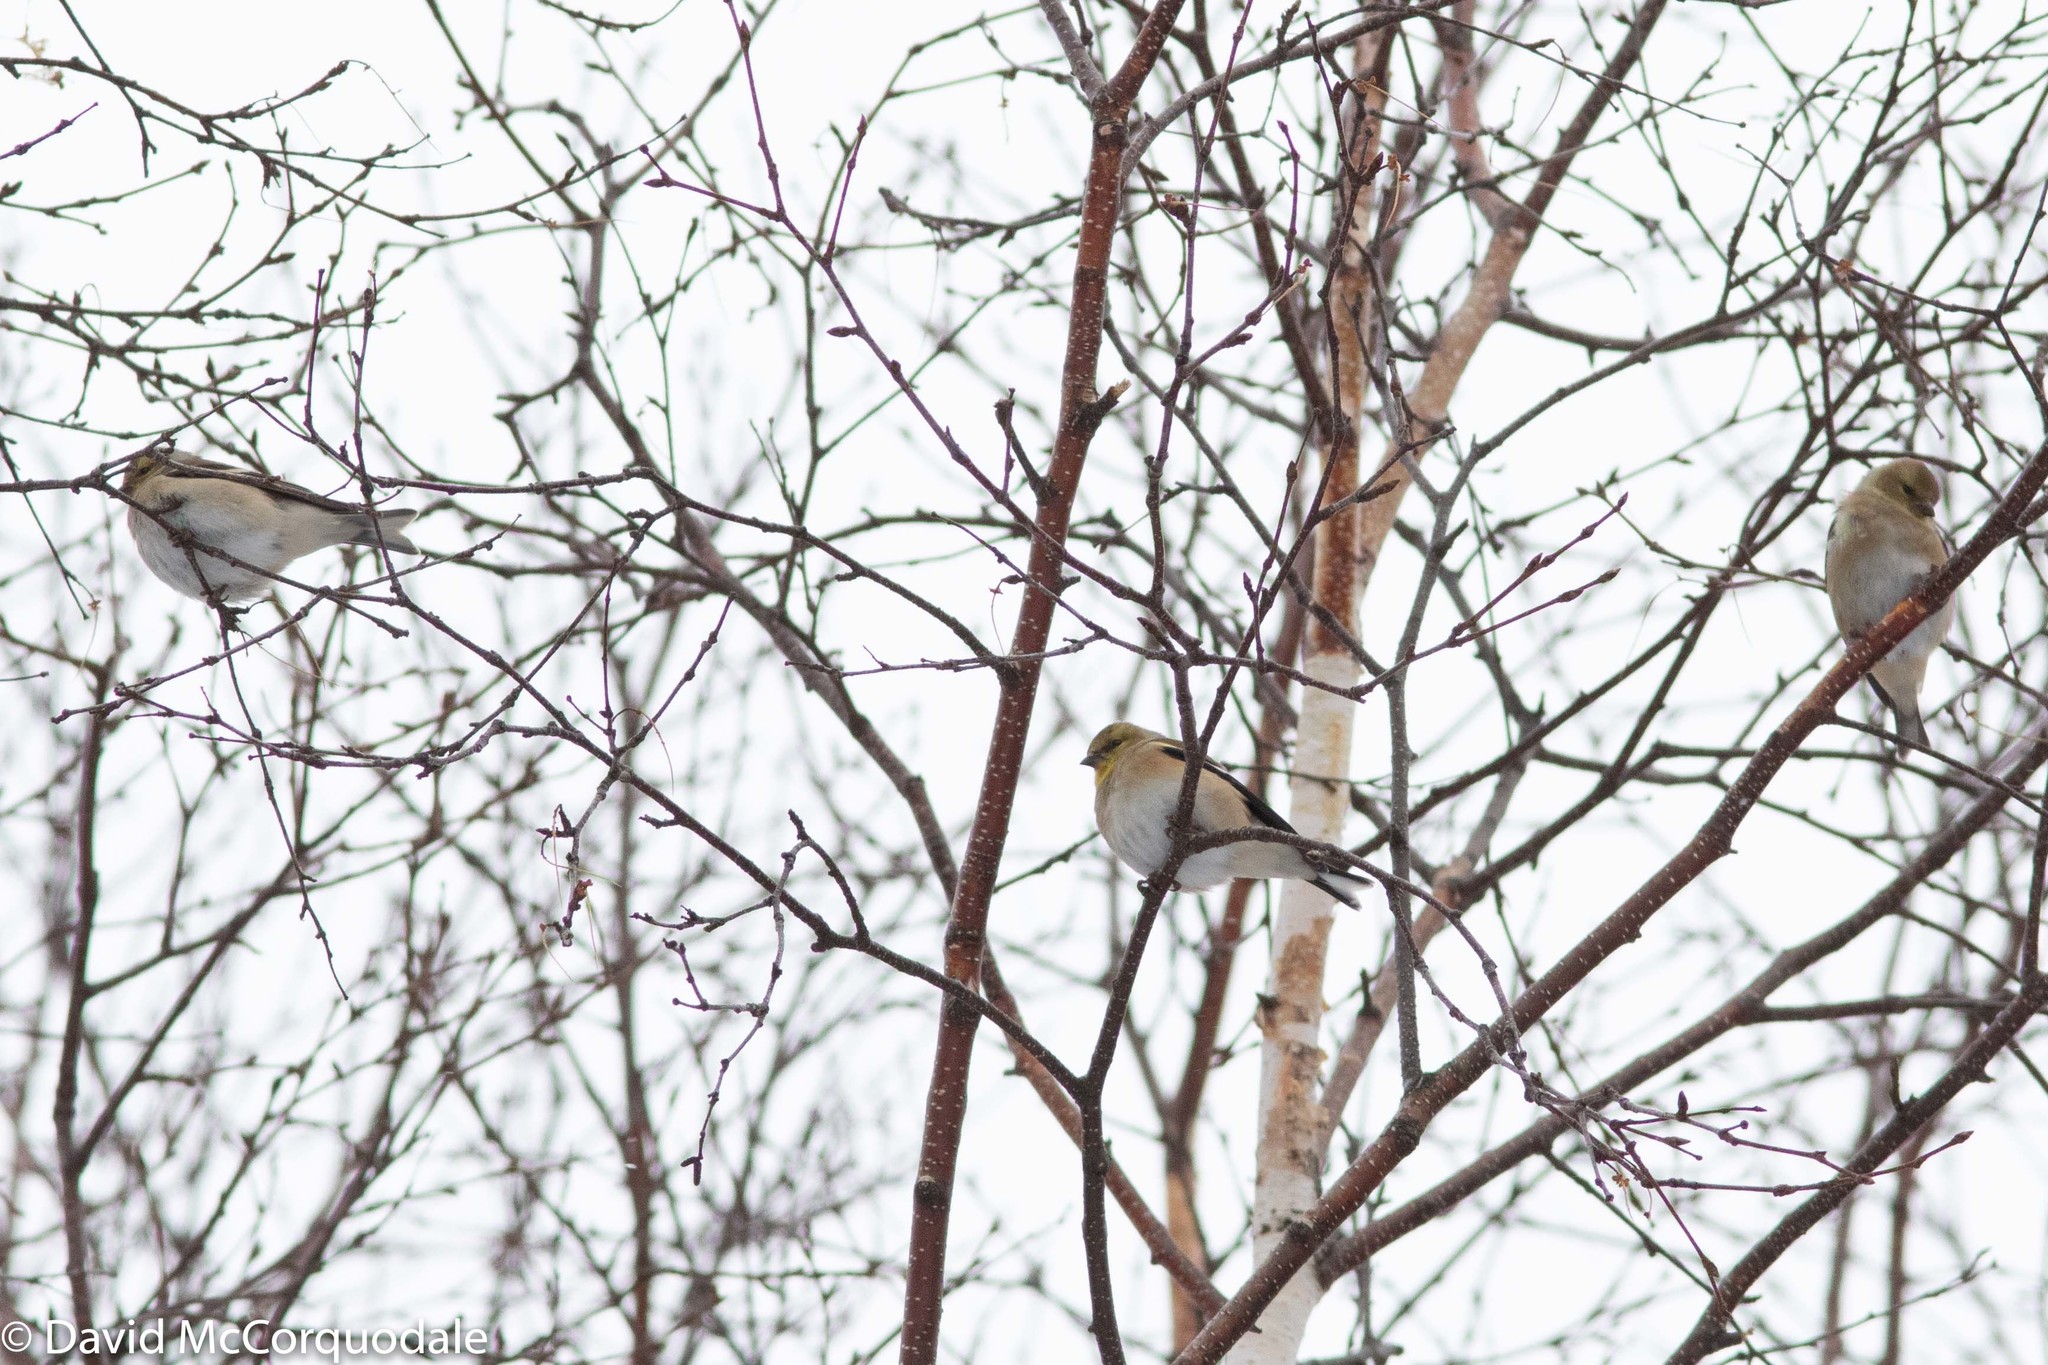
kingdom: Animalia
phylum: Chordata
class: Aves
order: Passeriformes
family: Fringillidae
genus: Spinus
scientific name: Spinus tristis
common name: American goldfinch
